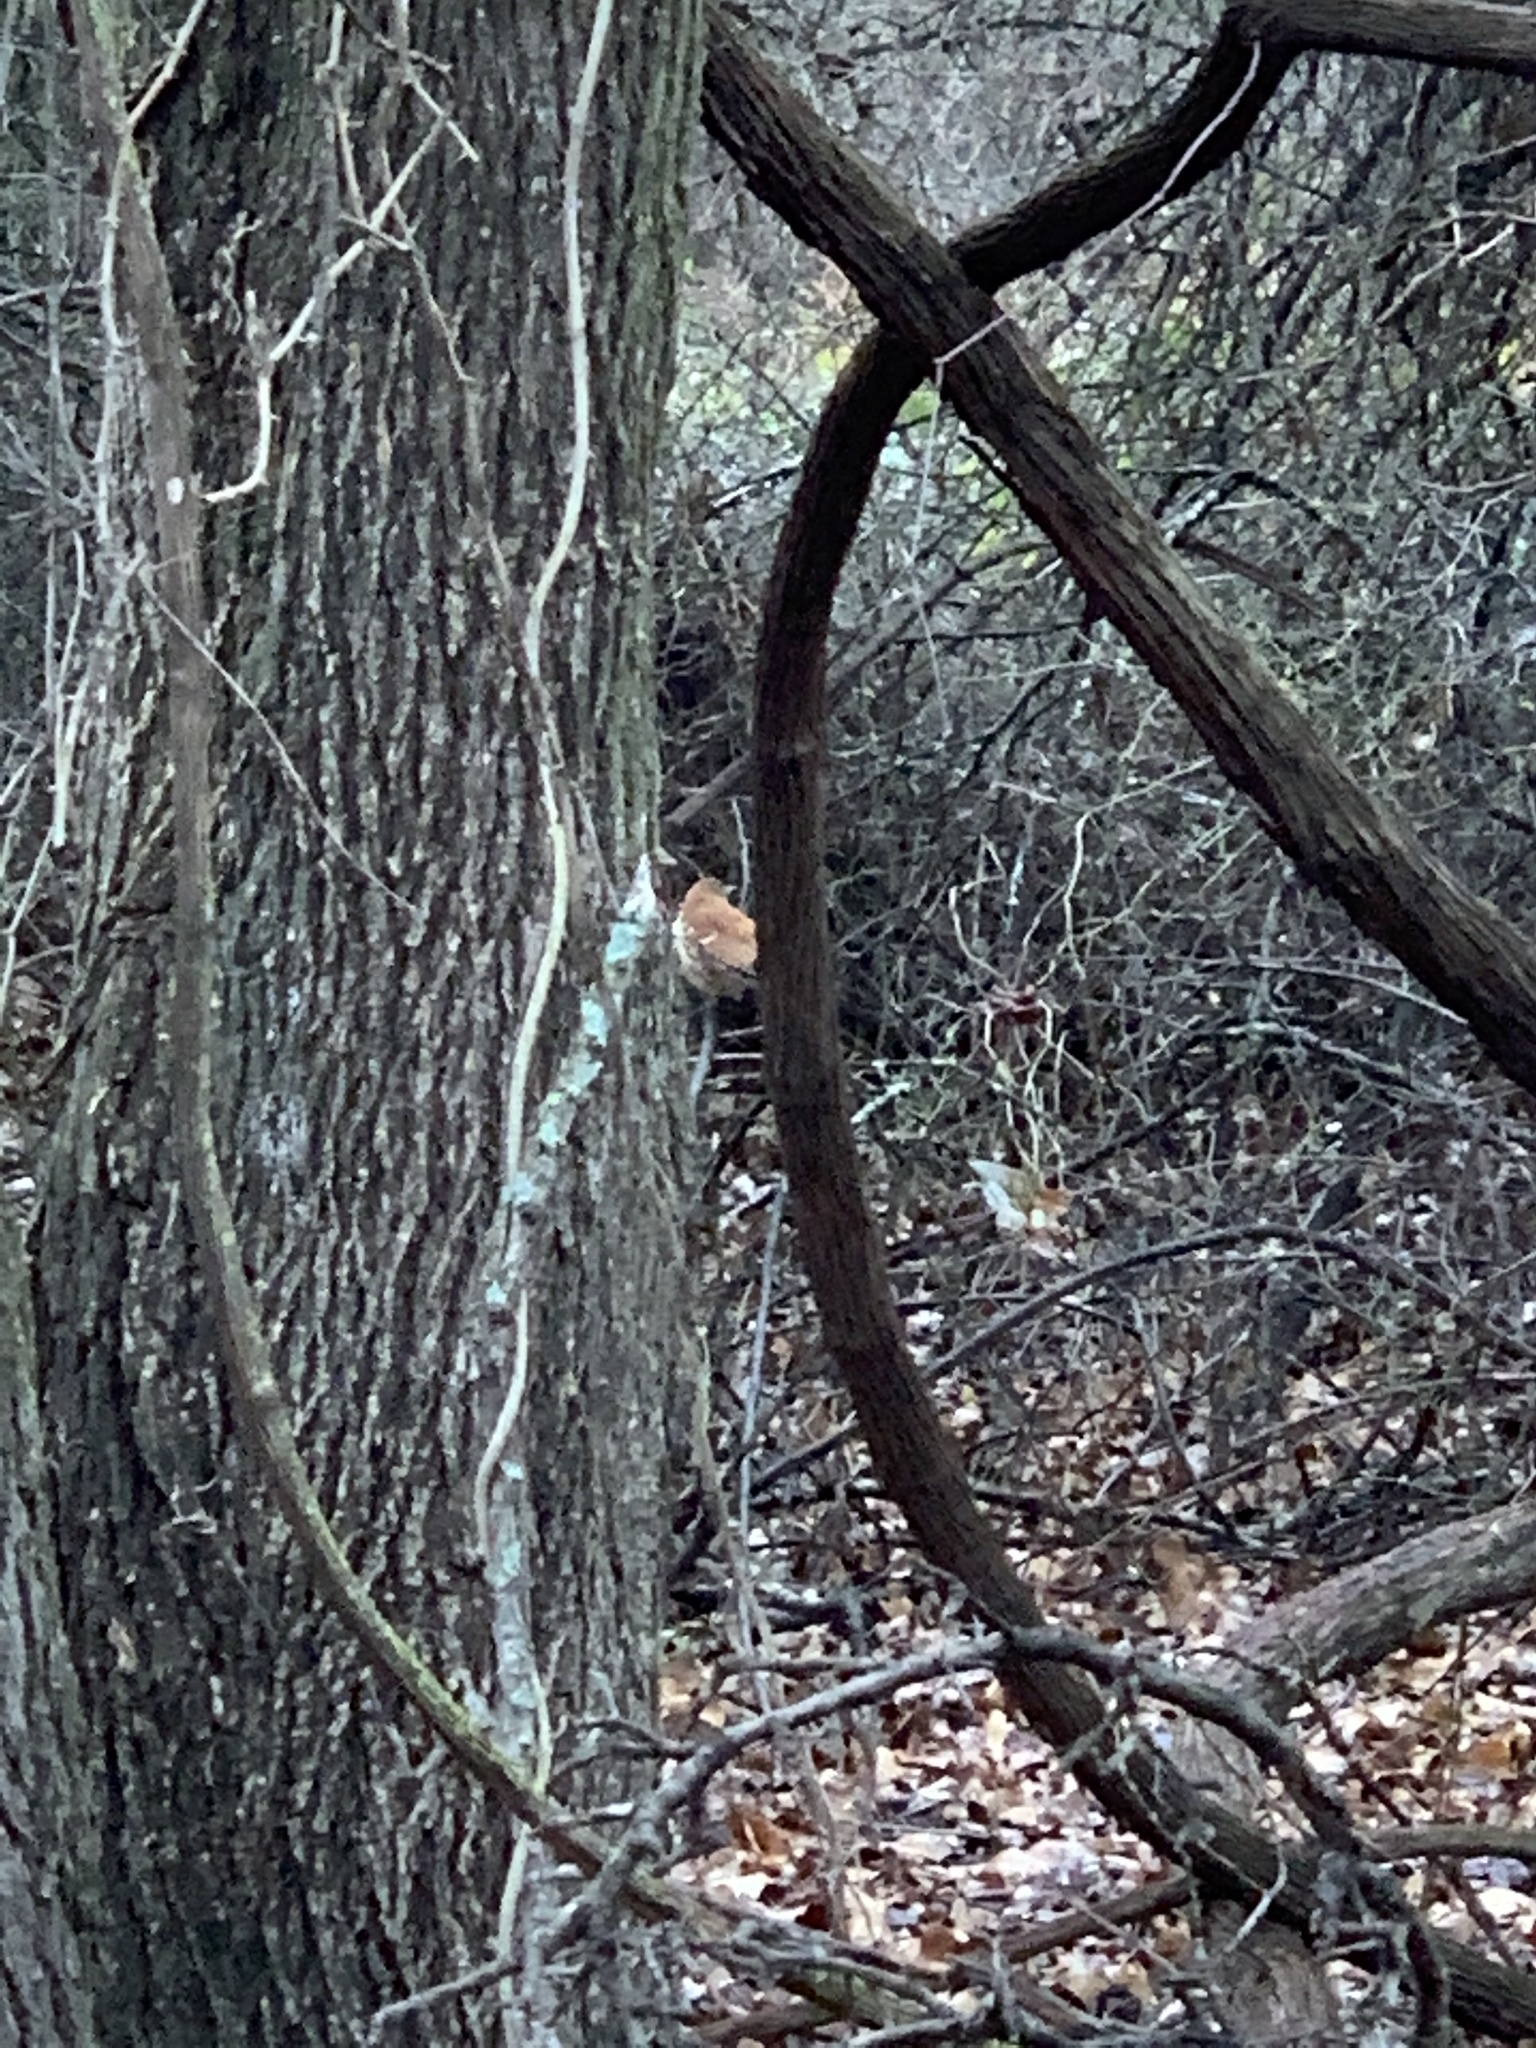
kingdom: Animalia
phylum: Chordata
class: Aves
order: Passeriformes
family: Mimidae
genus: Toxostoma
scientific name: Toxostoma rufum
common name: Brown thrasher
